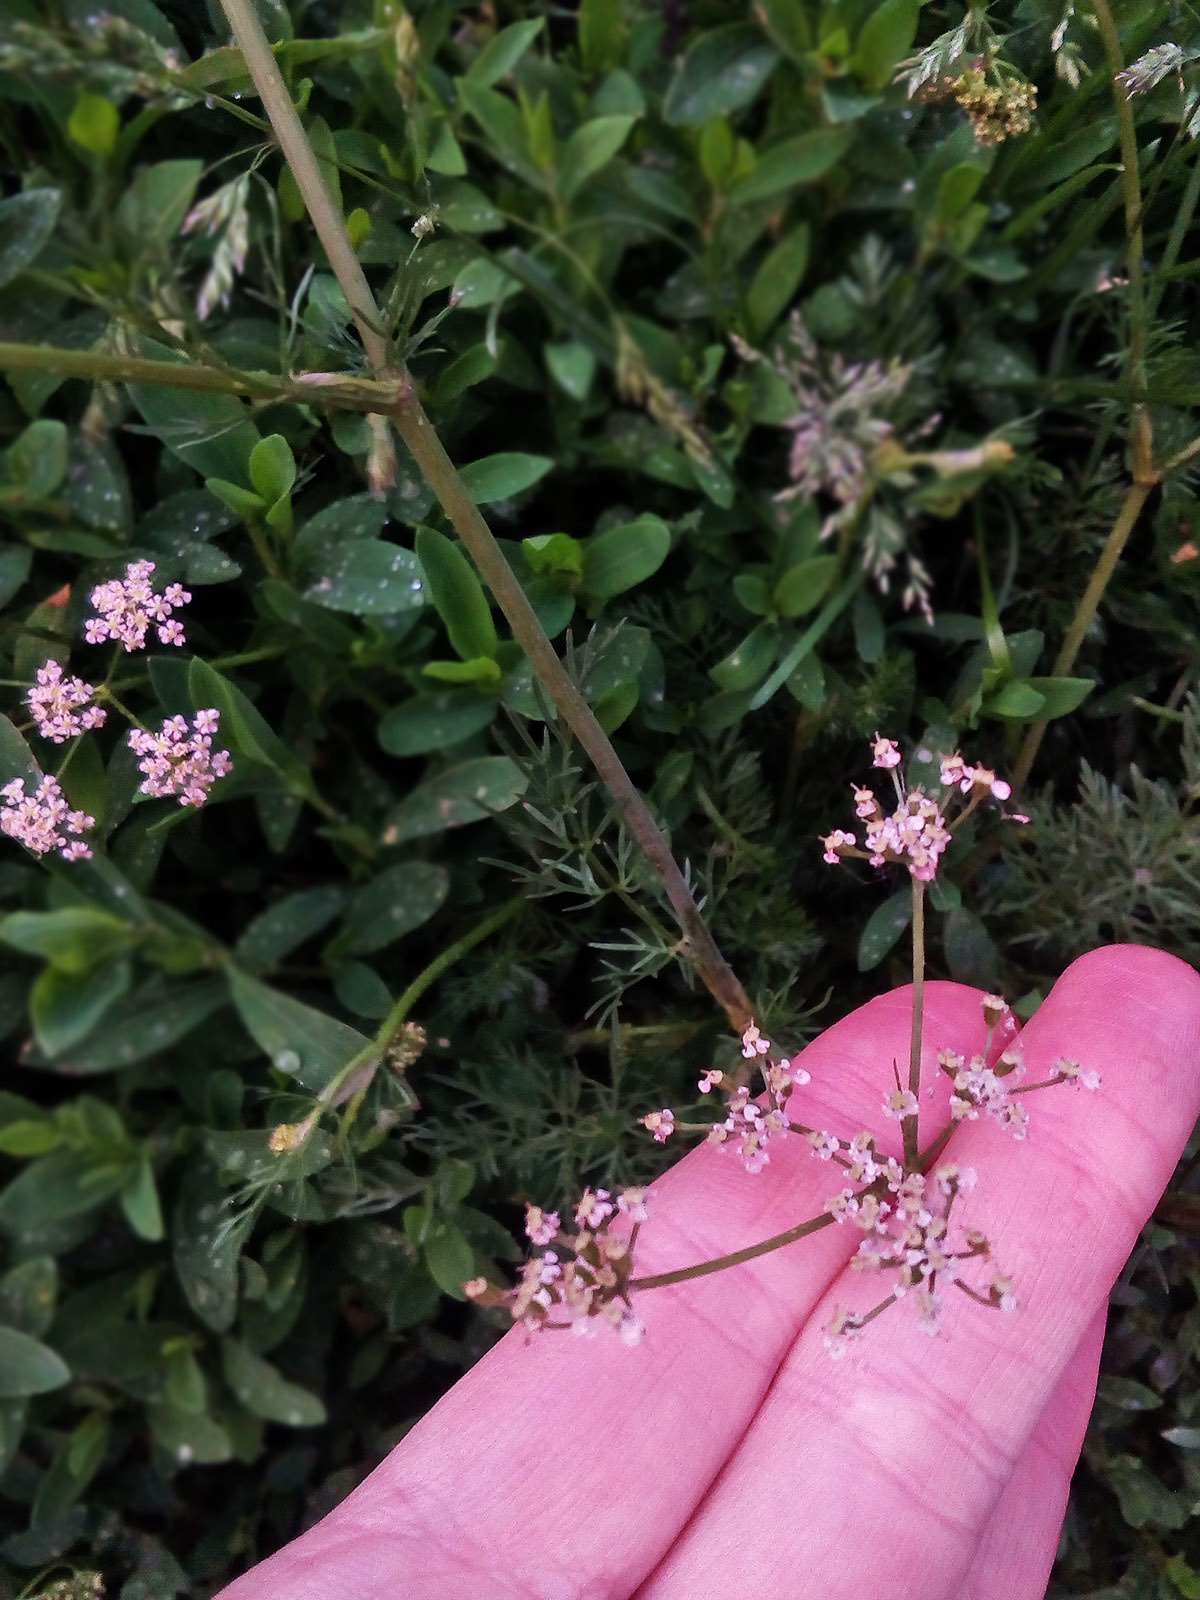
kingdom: Plantae
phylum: Tracheophyta
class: Magnoliopsida
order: Apiales
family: Apiaceae
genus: Carum
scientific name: Carum carvi
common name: Caraway
